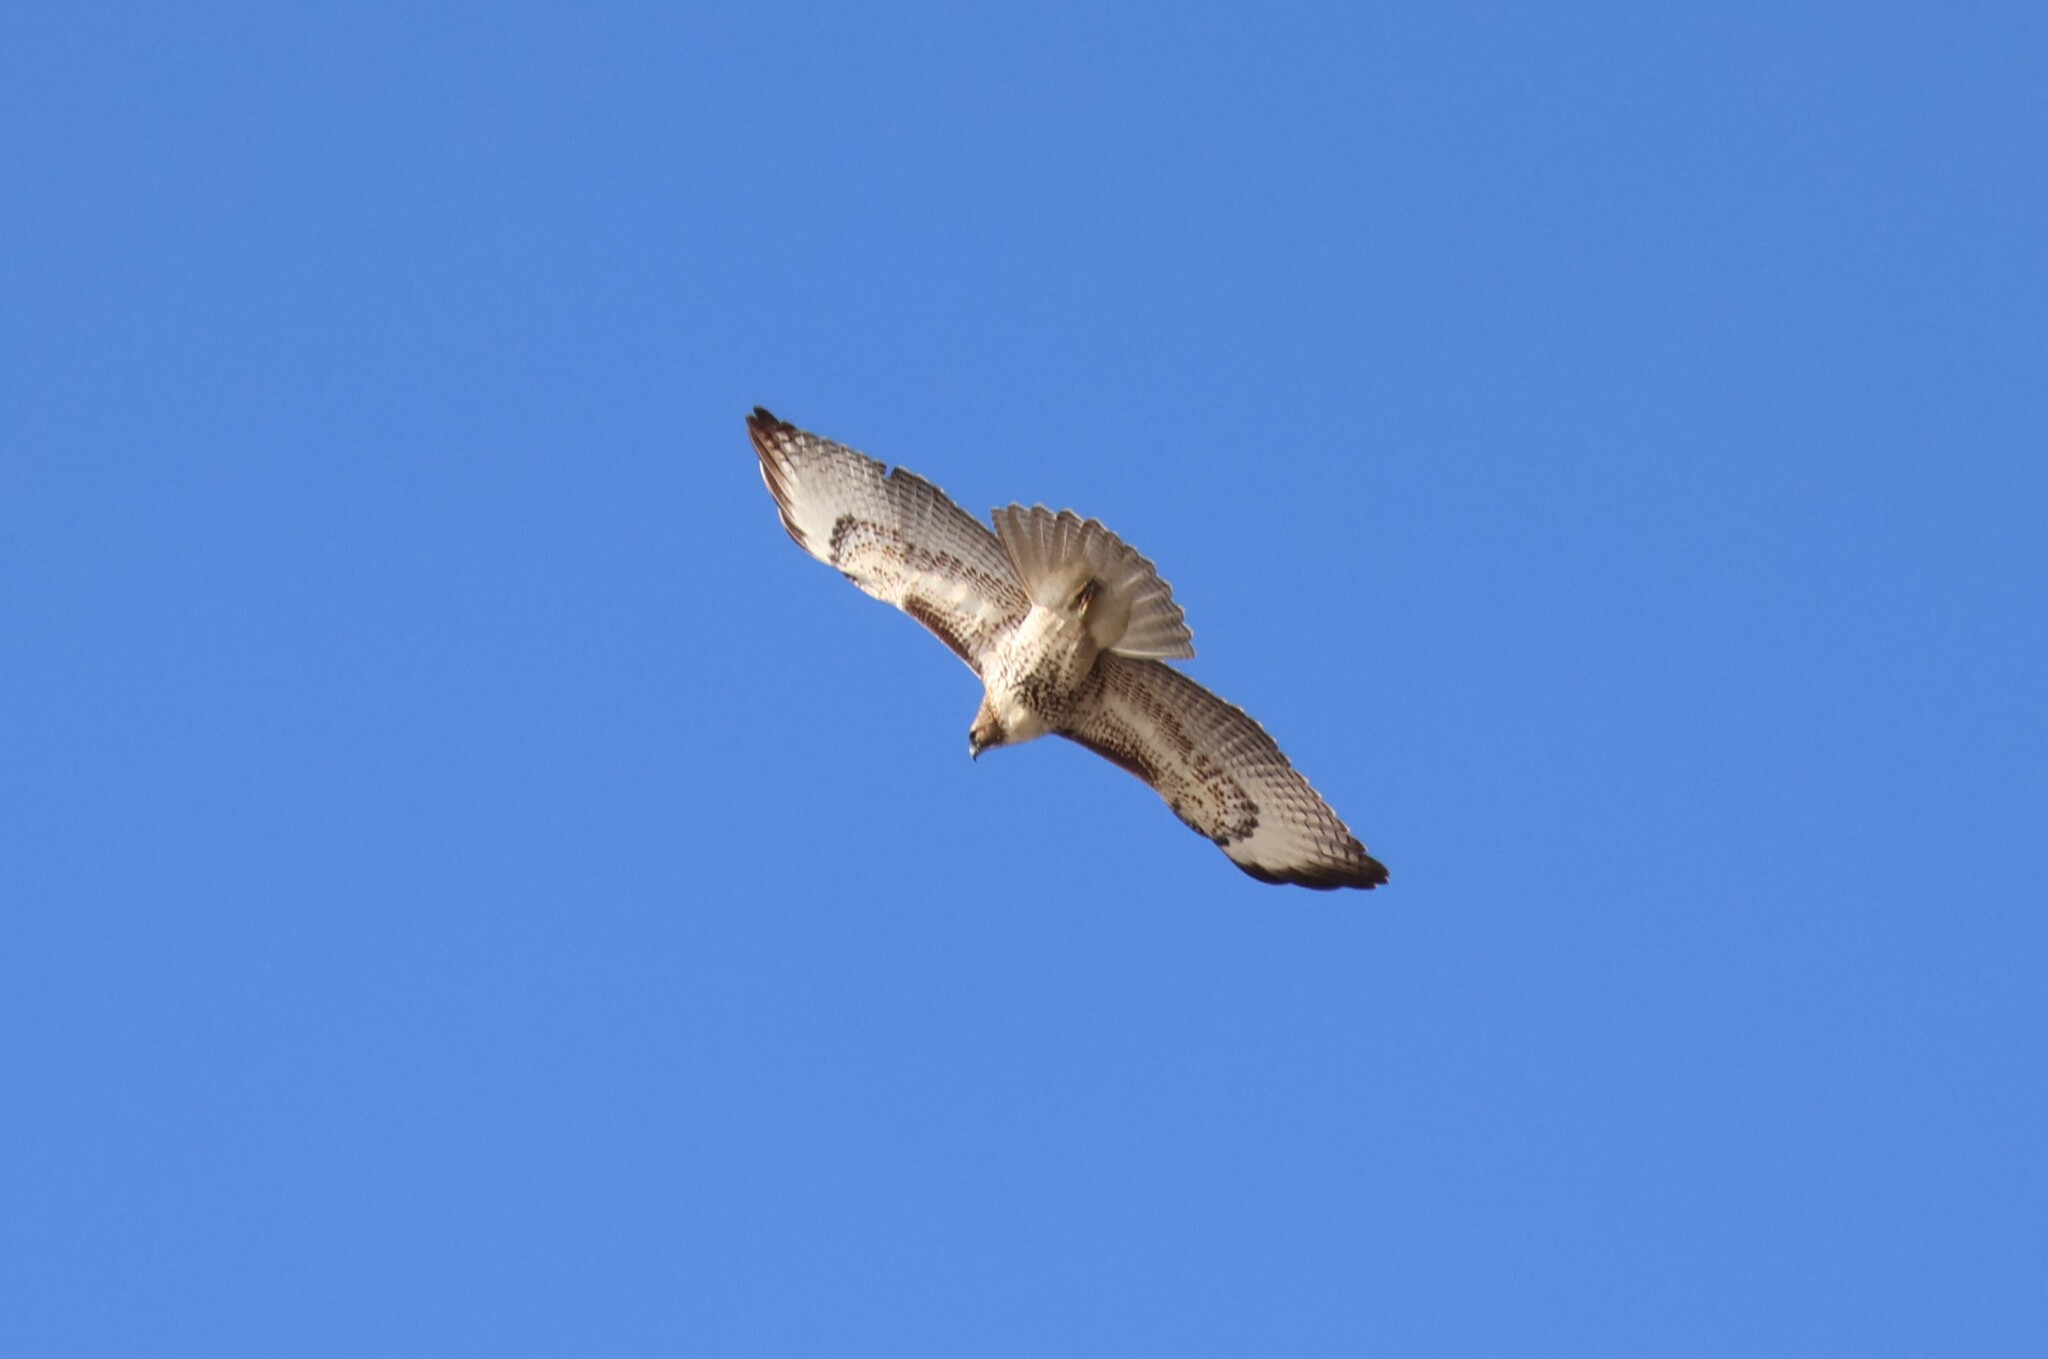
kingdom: Animalia
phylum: Chordata
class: Aves
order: Accipitriformes
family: Accipitridae
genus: Buteo
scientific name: Buteo jamaicensis
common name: Red-tailed hawk
